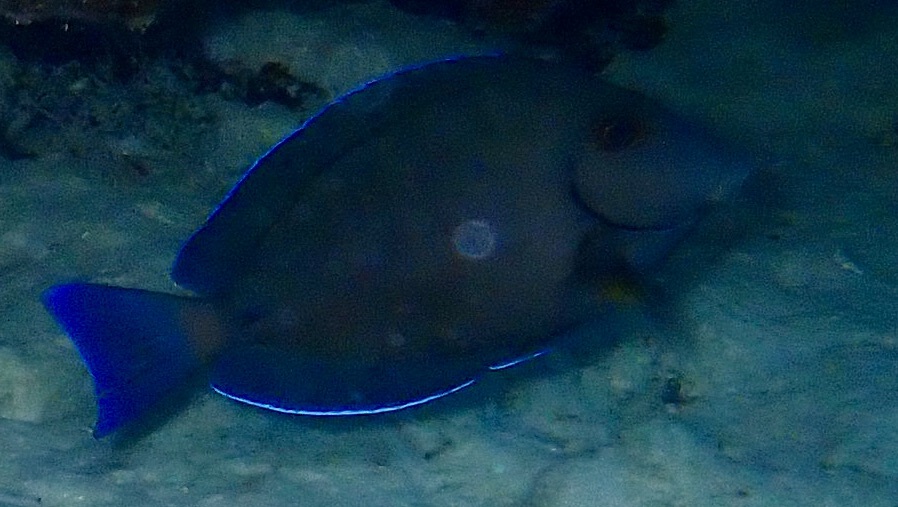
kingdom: Animalia
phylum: Chordata
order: Perciformes
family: Acanthuridae
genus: Acanthurus
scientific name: Acanthurus coeruleus
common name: Blue tang
